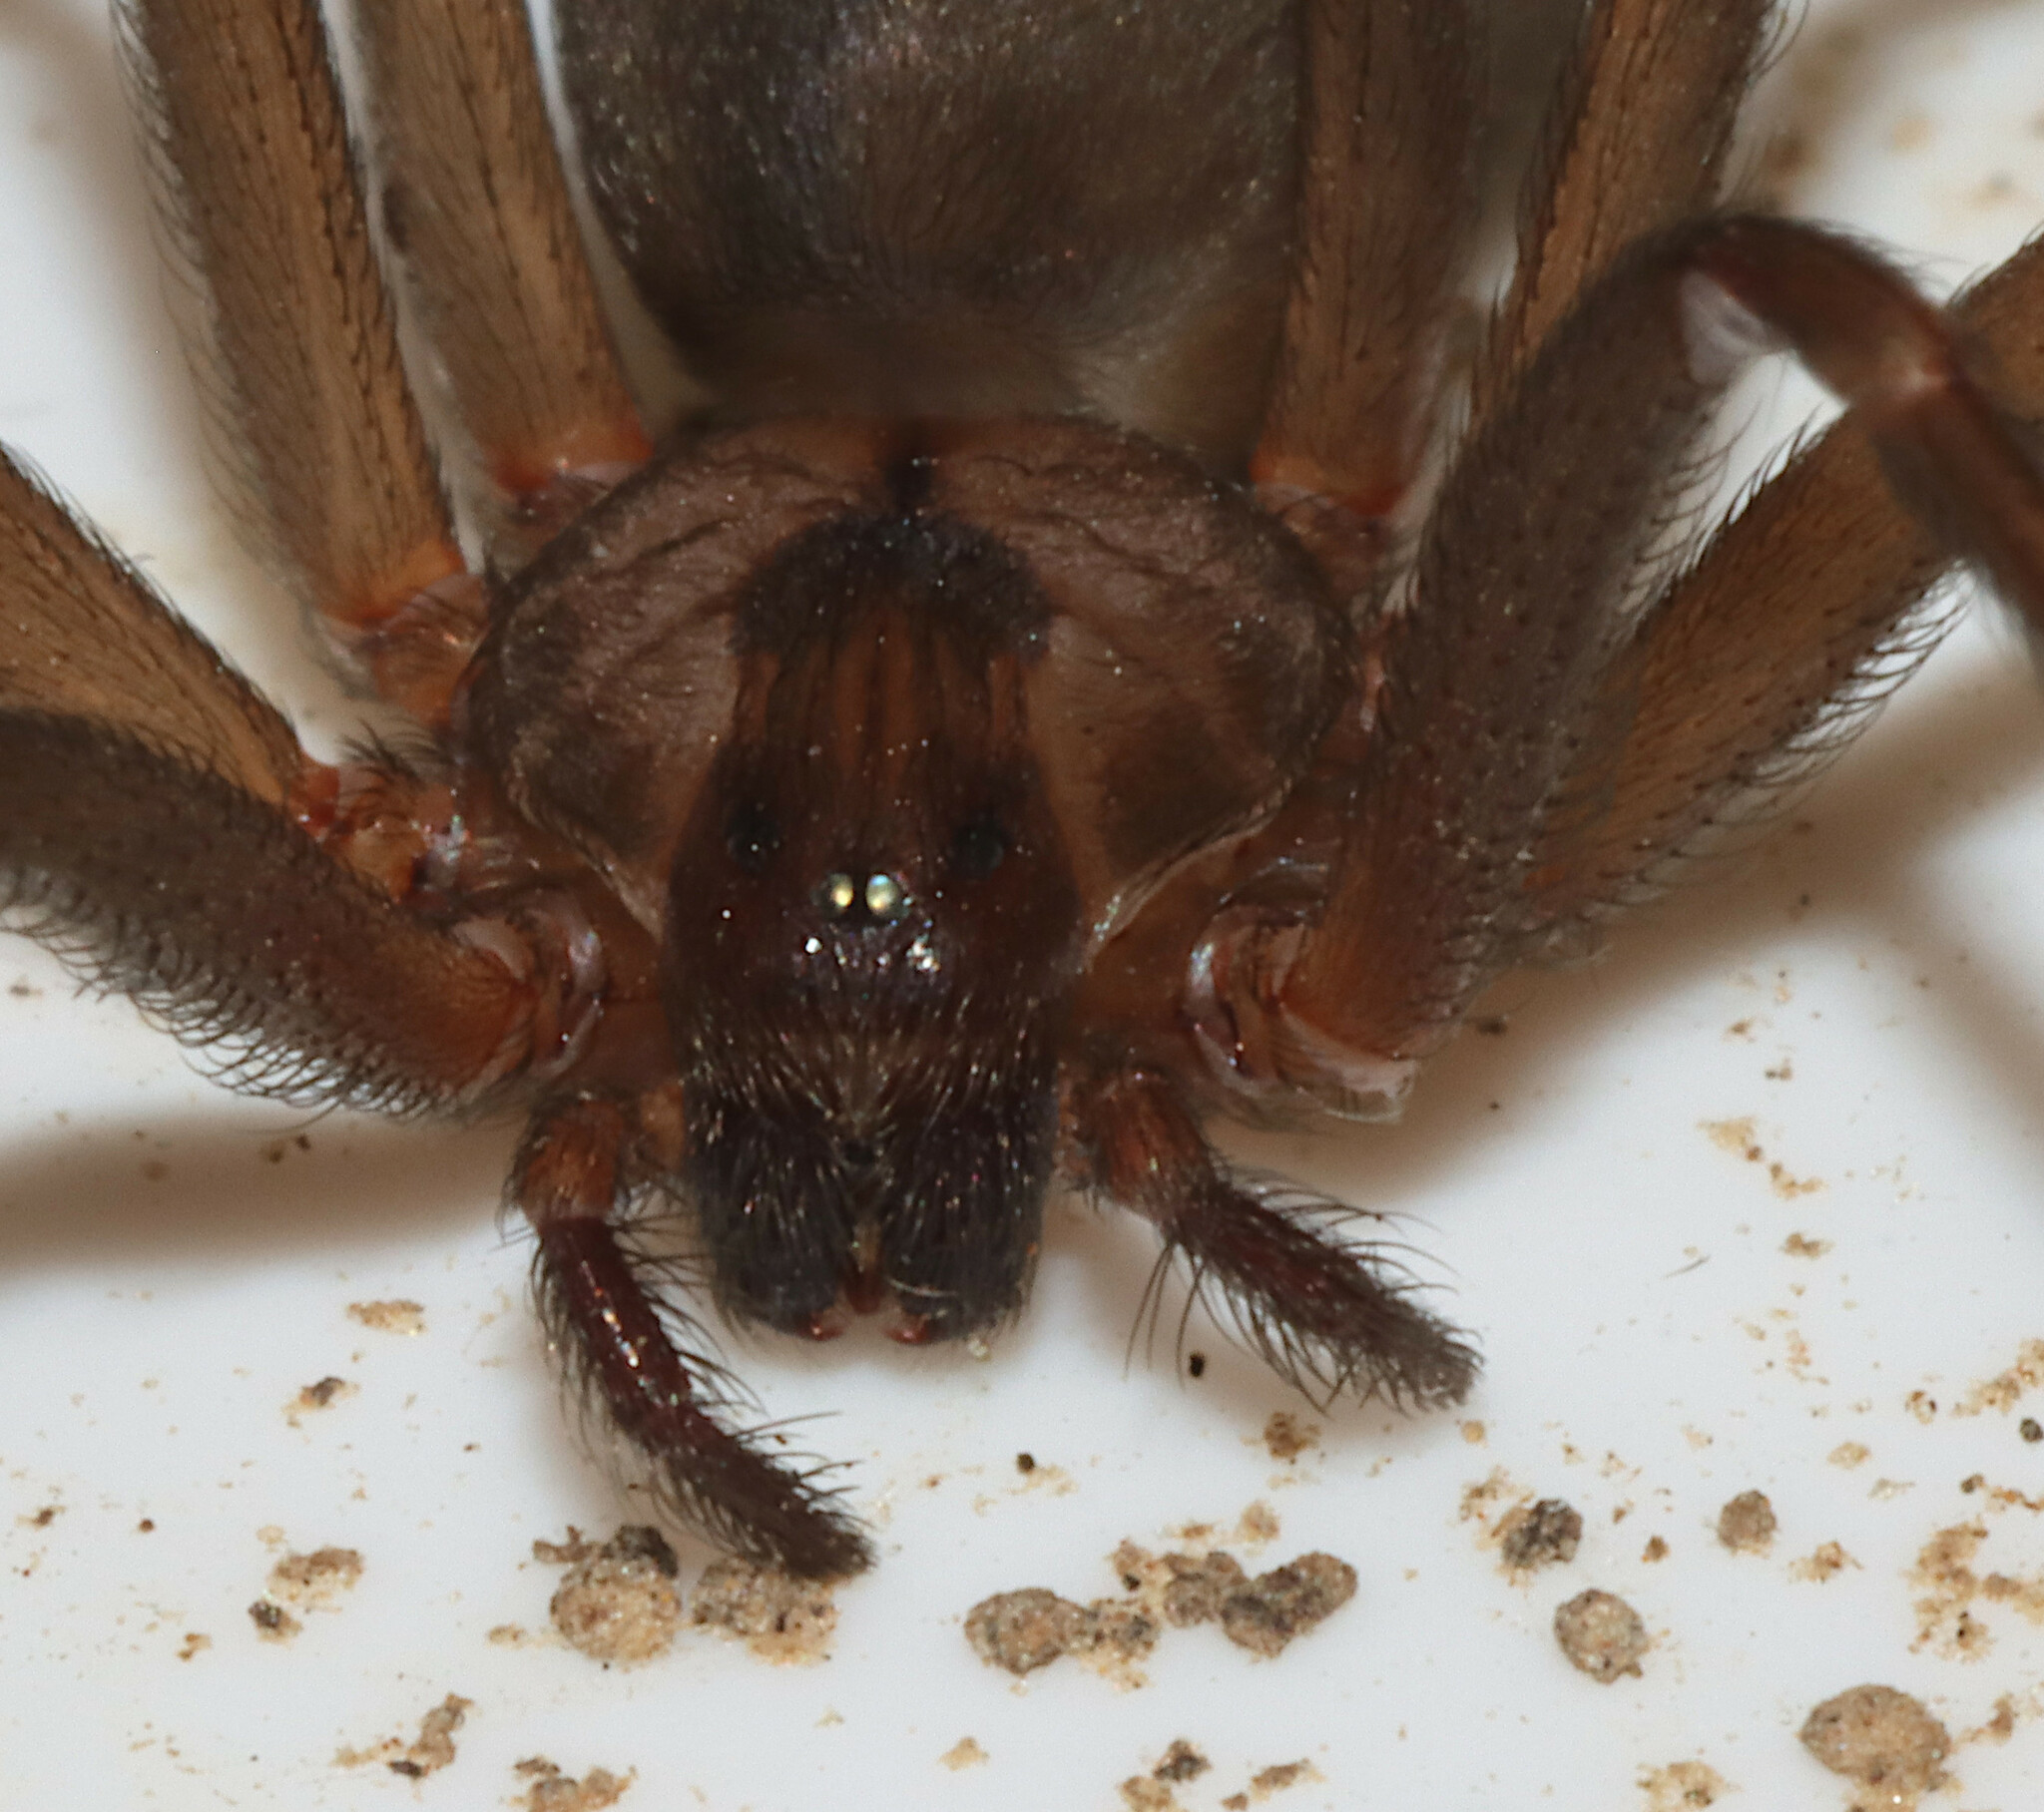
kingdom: Animalia
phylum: Arthropoda
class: Arachnida
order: Araneae
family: Sicariidae
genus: Loxosceles
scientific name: Loxosceles reclusa
